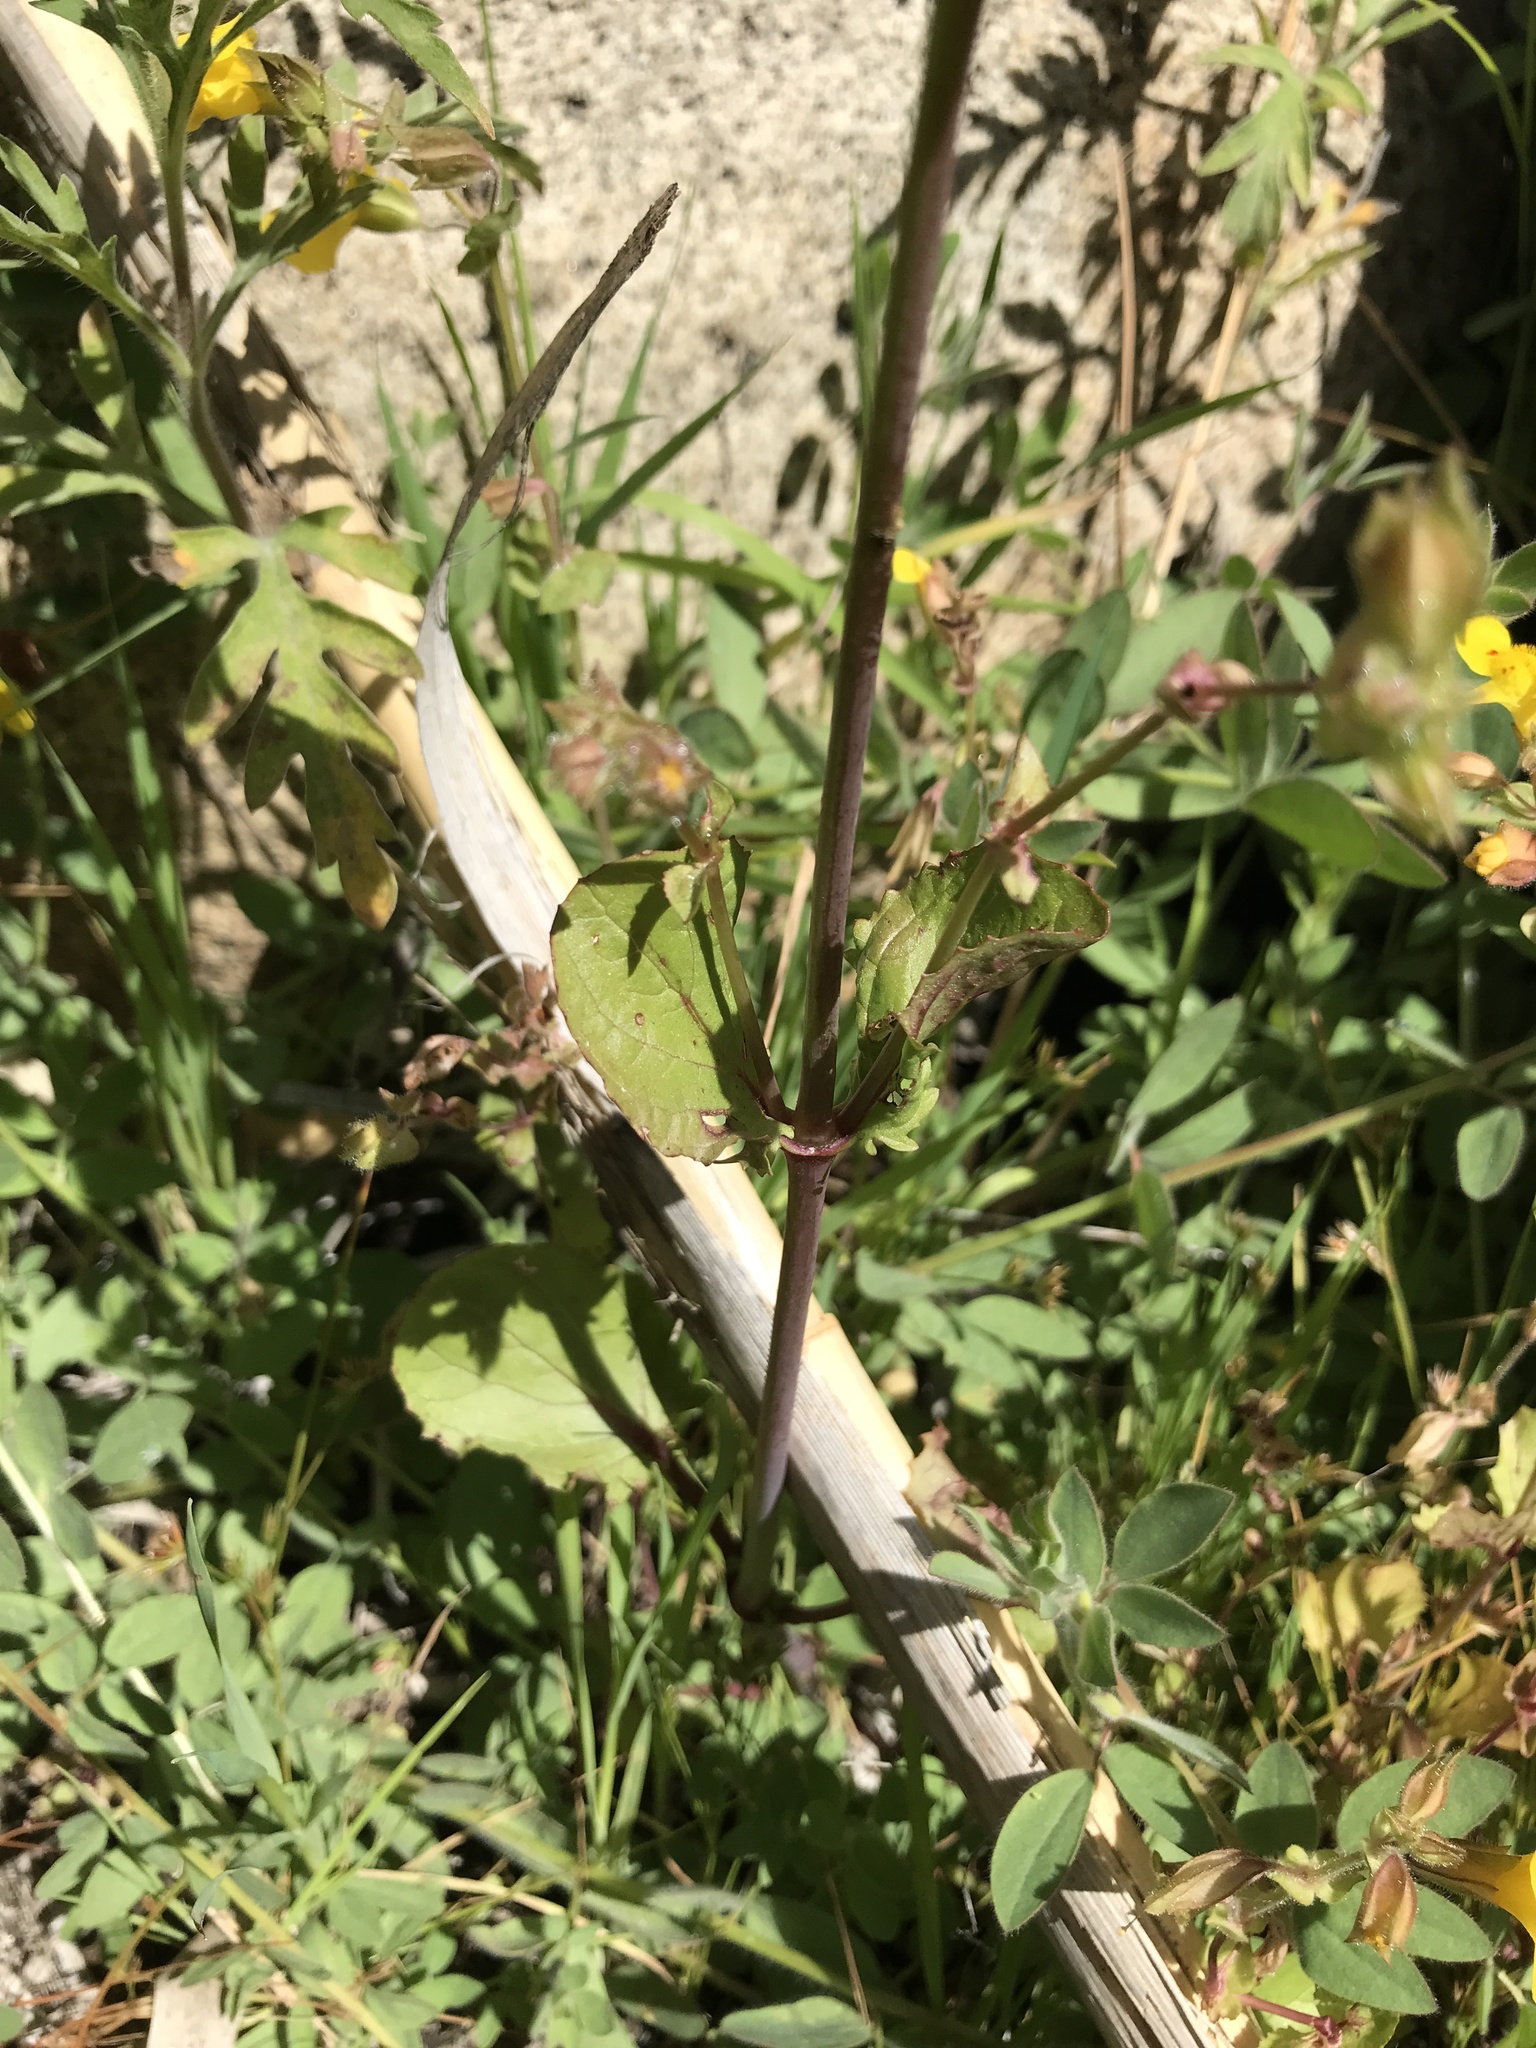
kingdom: Plantae
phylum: Tracheophyta
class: Magnoliopsida
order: Lamiales
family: Phrymaceae
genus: Erythranthe
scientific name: Erythranthe guttata
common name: Monkeyflower
